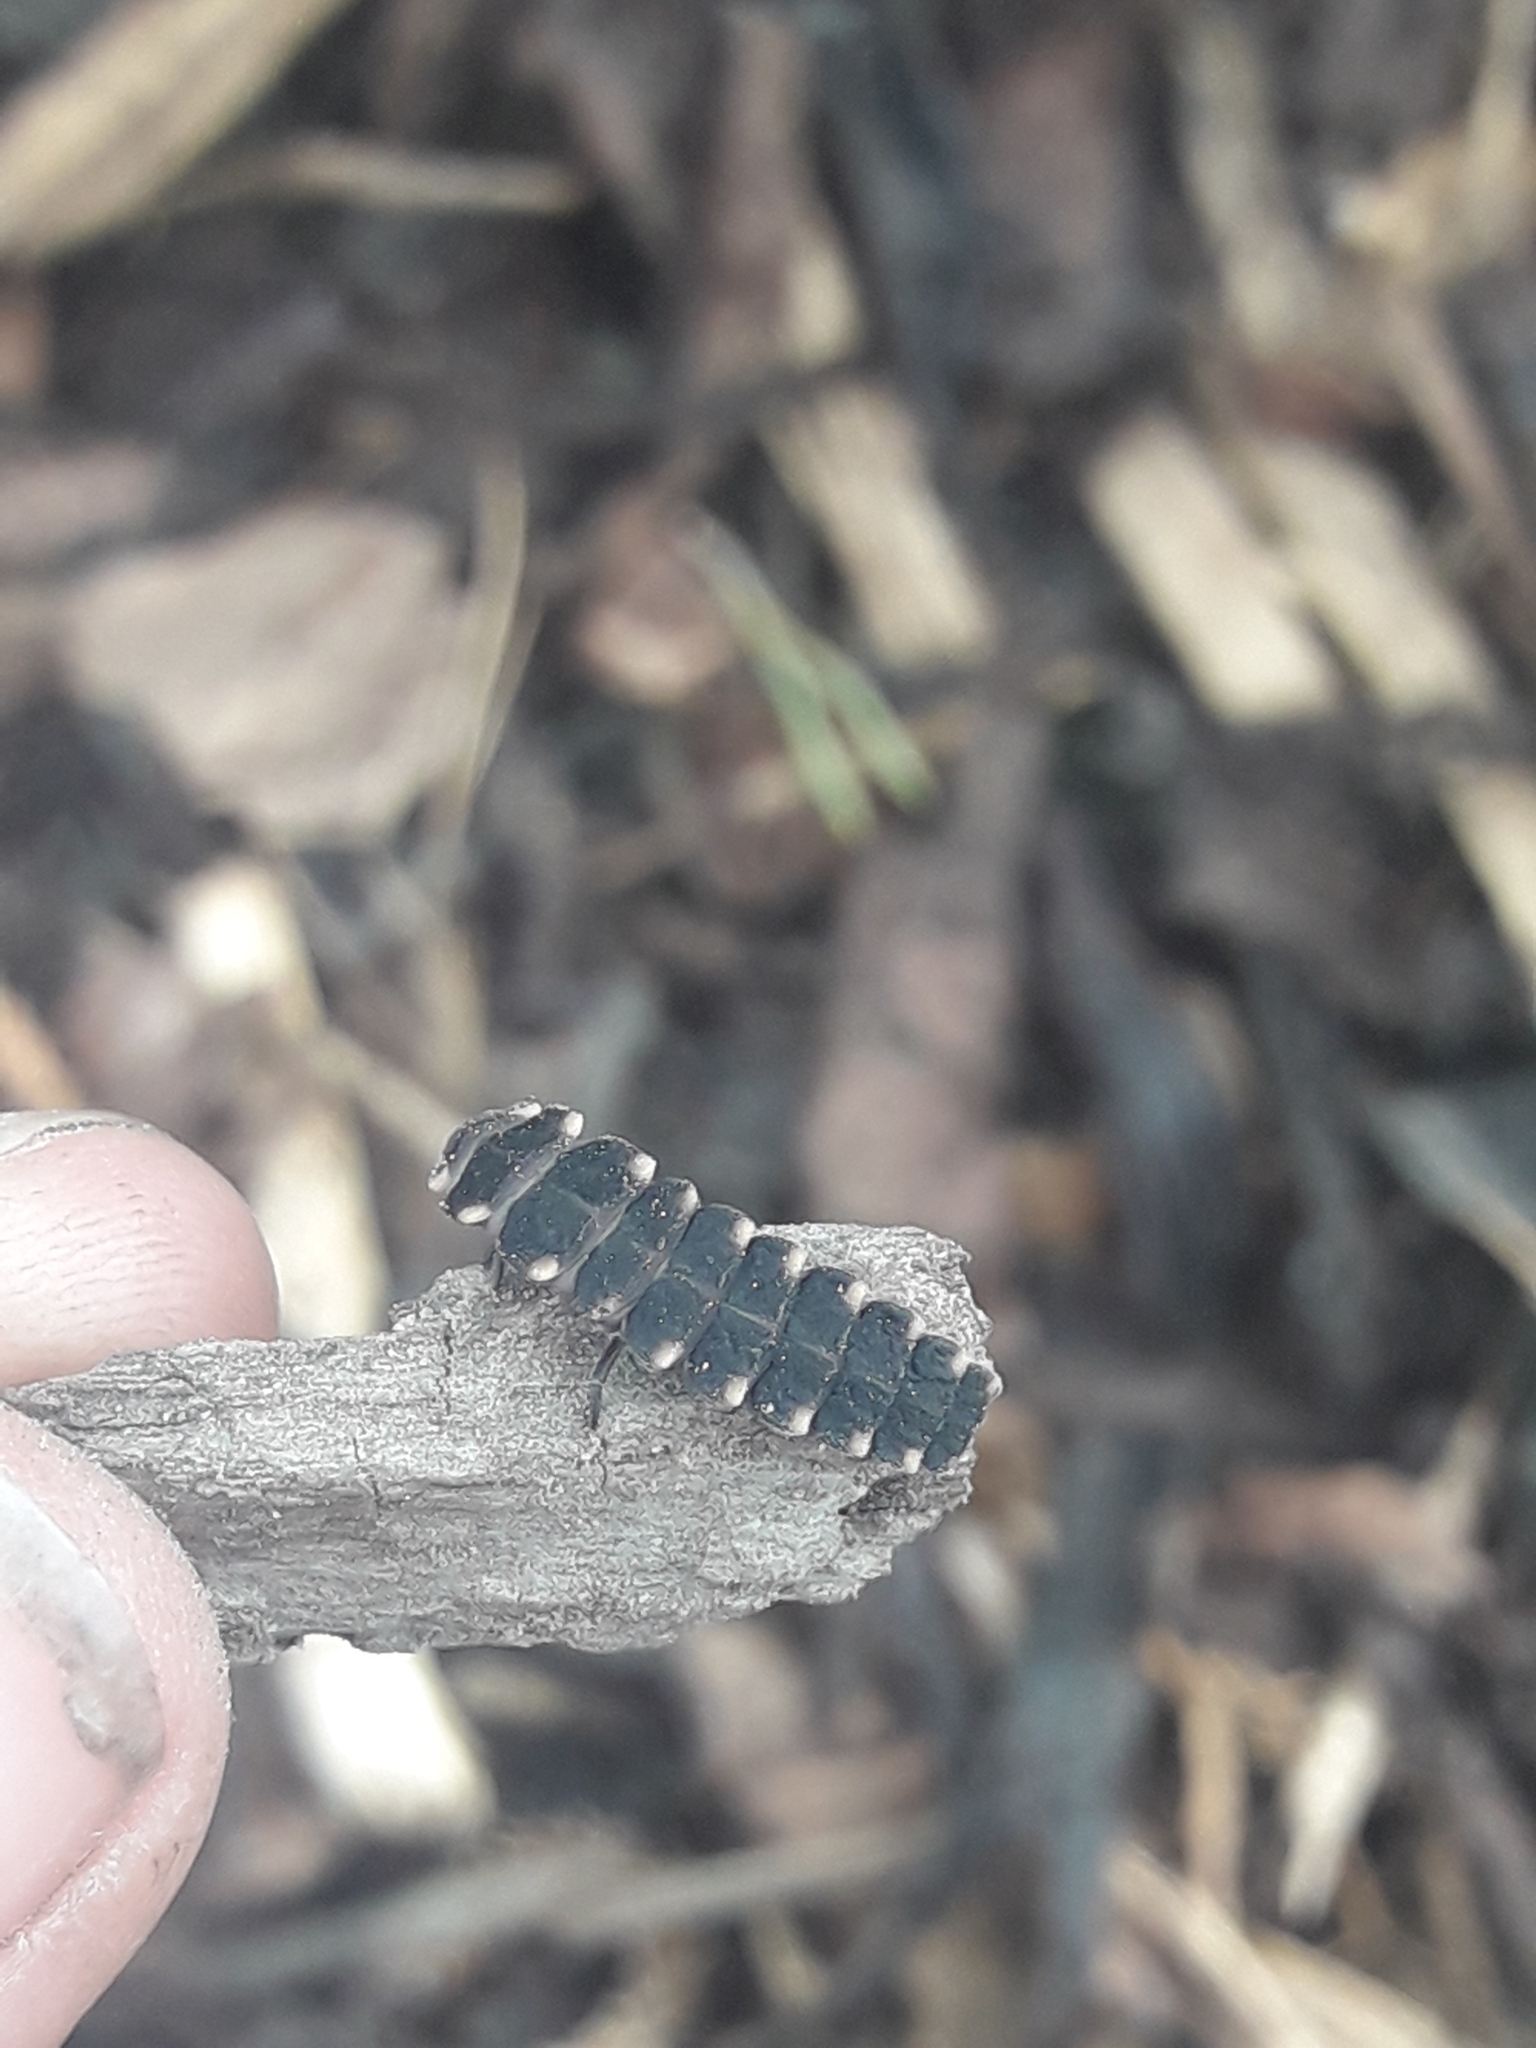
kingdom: Animalia
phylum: Arthropoda
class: Insecta
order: Coleoptera
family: Lampyridae
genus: Lampyris
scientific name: Lampyris noctiluca
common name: Glow-worm
